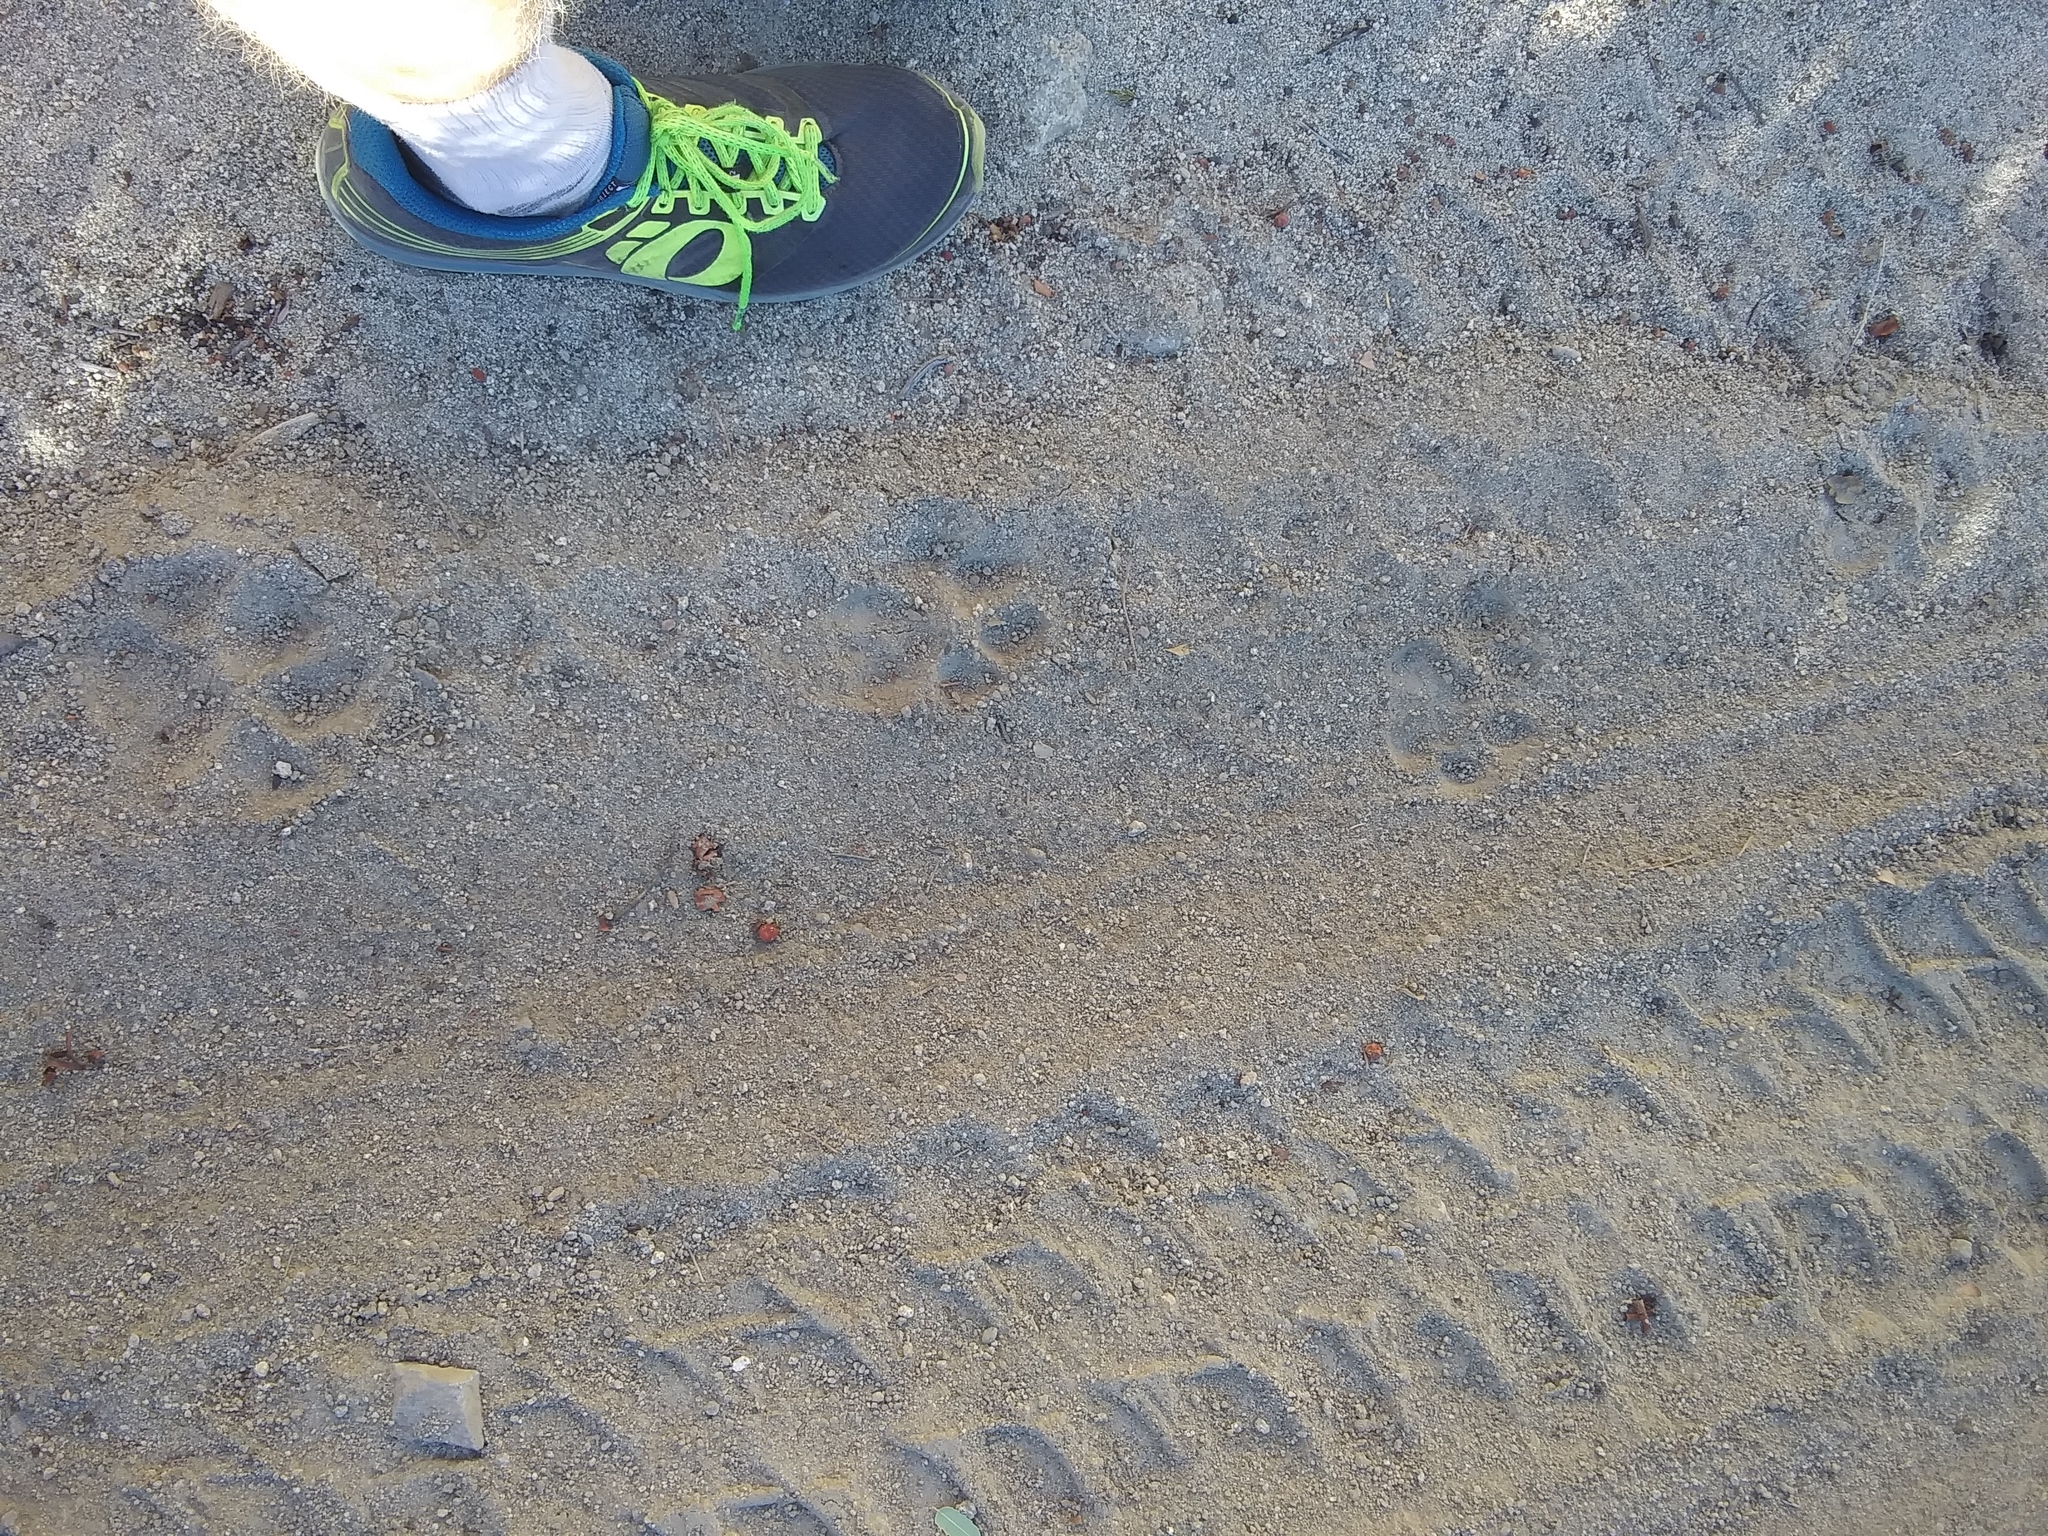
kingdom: Animalia
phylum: Chordata
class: Mammalia
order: Carnivora
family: Felidae
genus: Puma
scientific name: Puma concolor
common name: Puma
